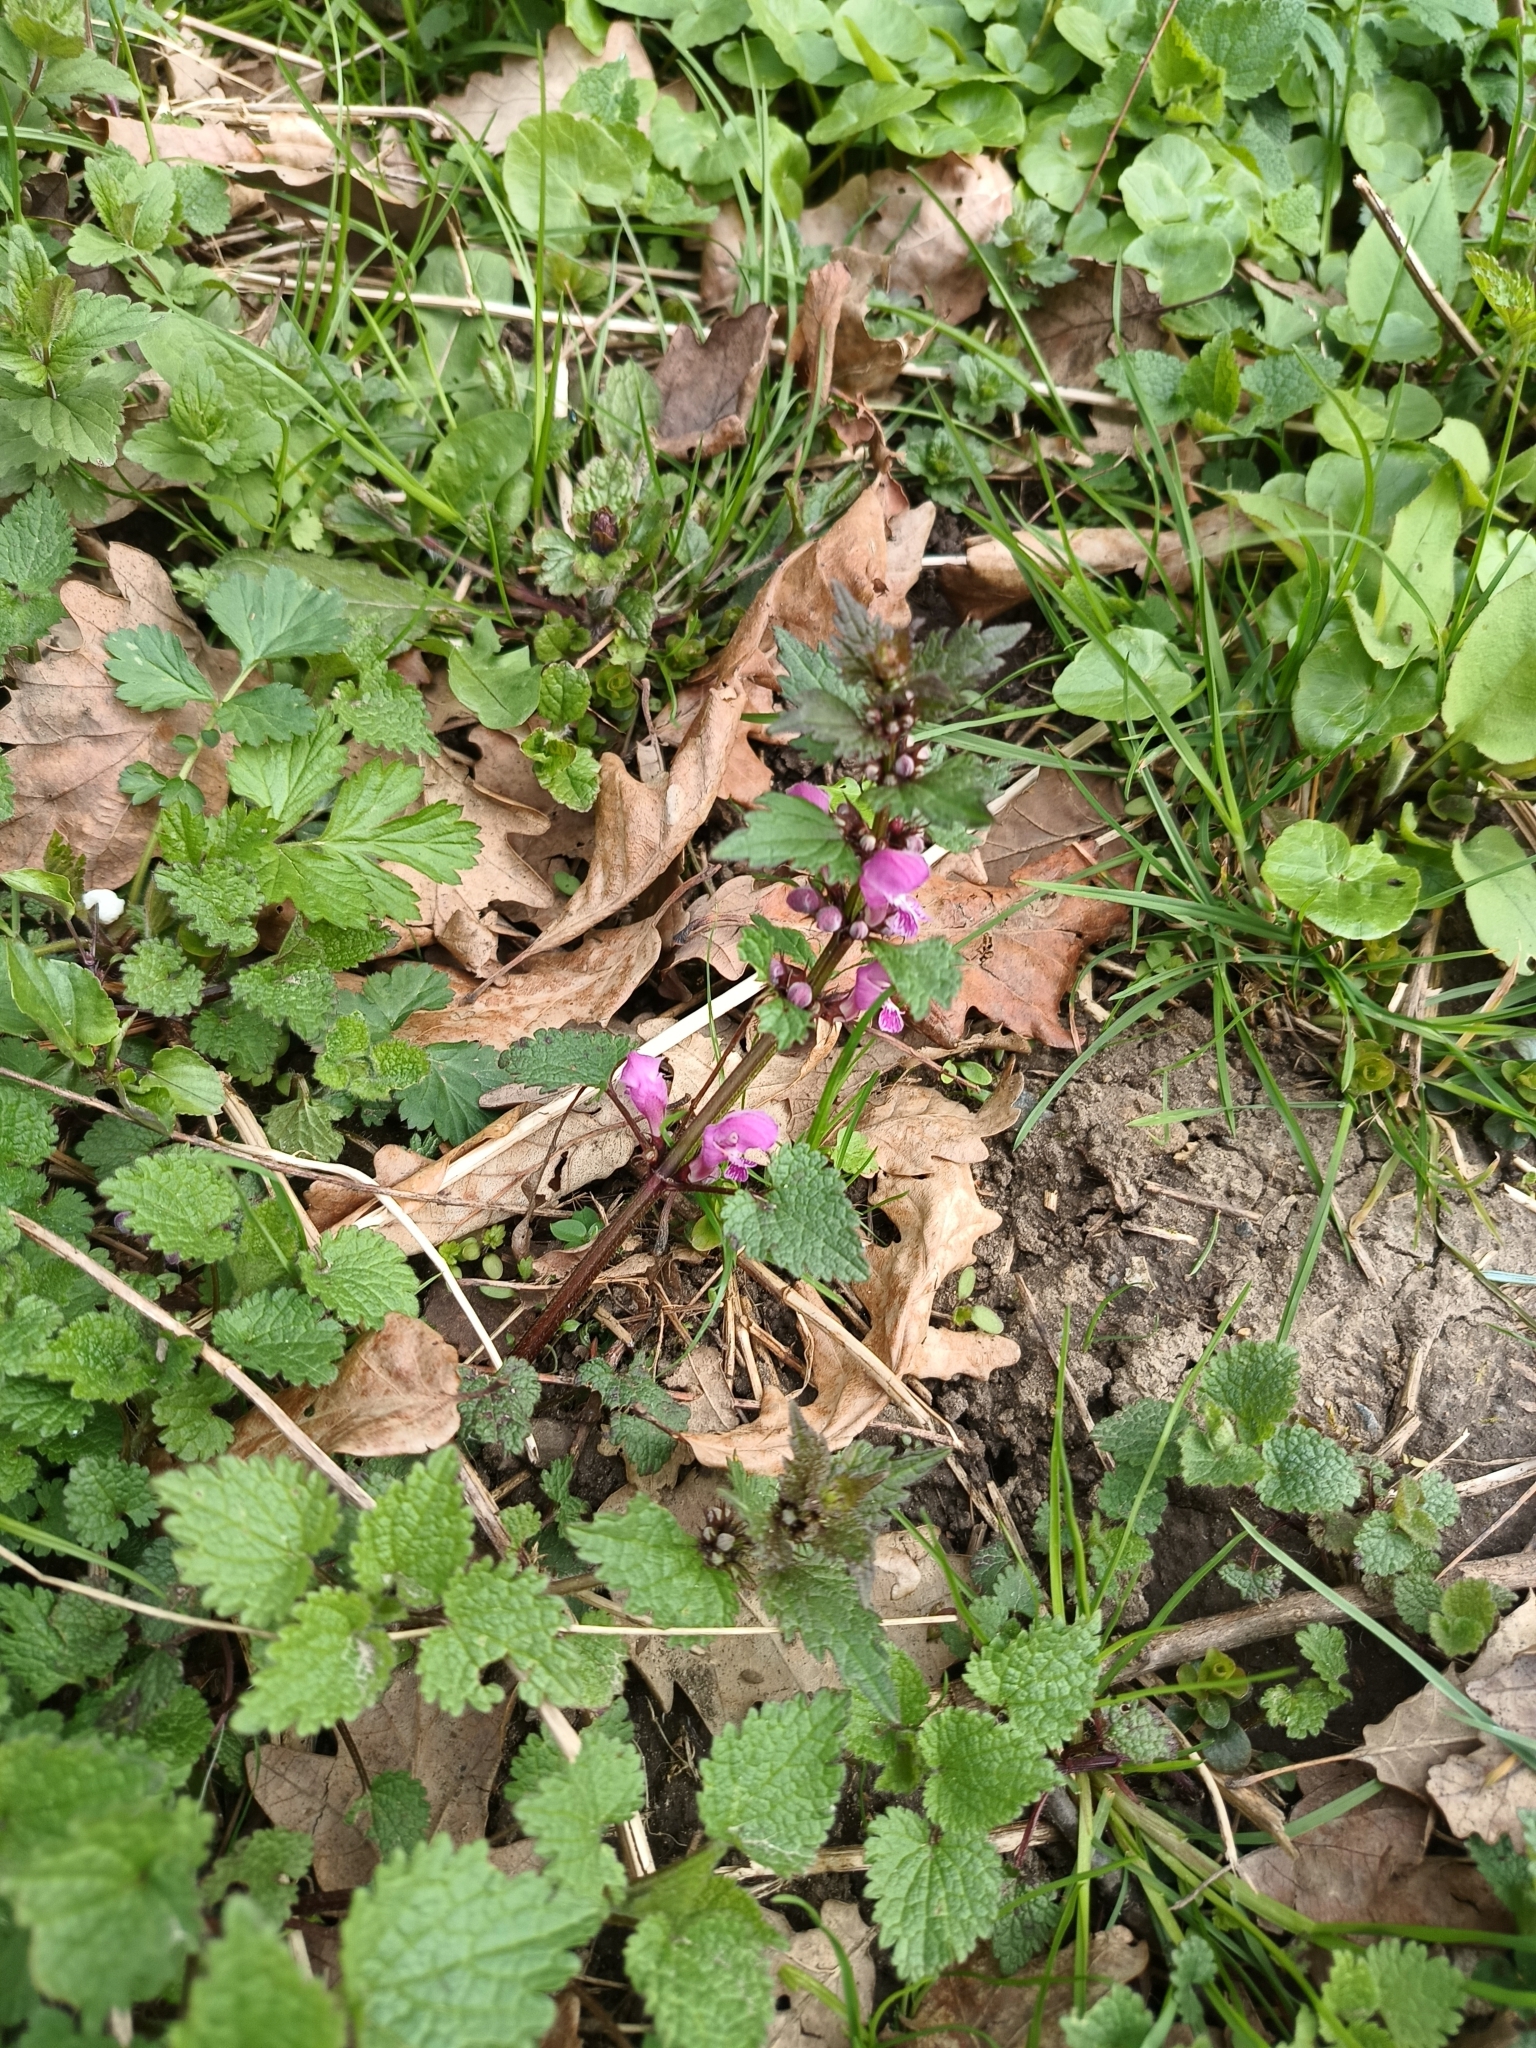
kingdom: Plantae
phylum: Tracheophyta
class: Magnoliopsida
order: Lamiales
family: Lamiaceae
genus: Lamium
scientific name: Lamium maculatum
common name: Spotted dead-nettle
